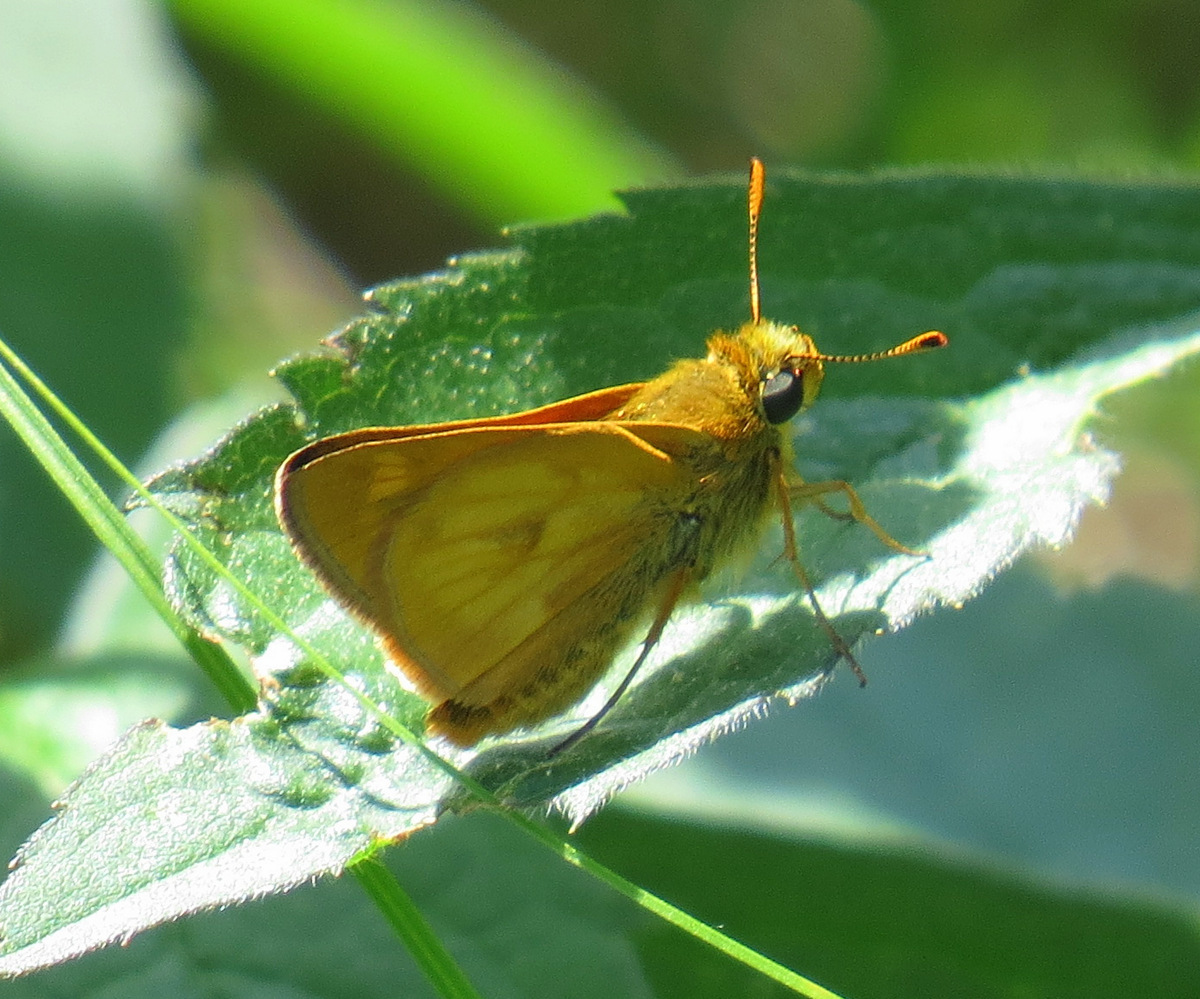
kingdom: Animalia
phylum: Arthropoda
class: Insecta
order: Lepidoptera
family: Hesperiidae
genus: Polites
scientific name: Polites mystic
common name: Long dash
